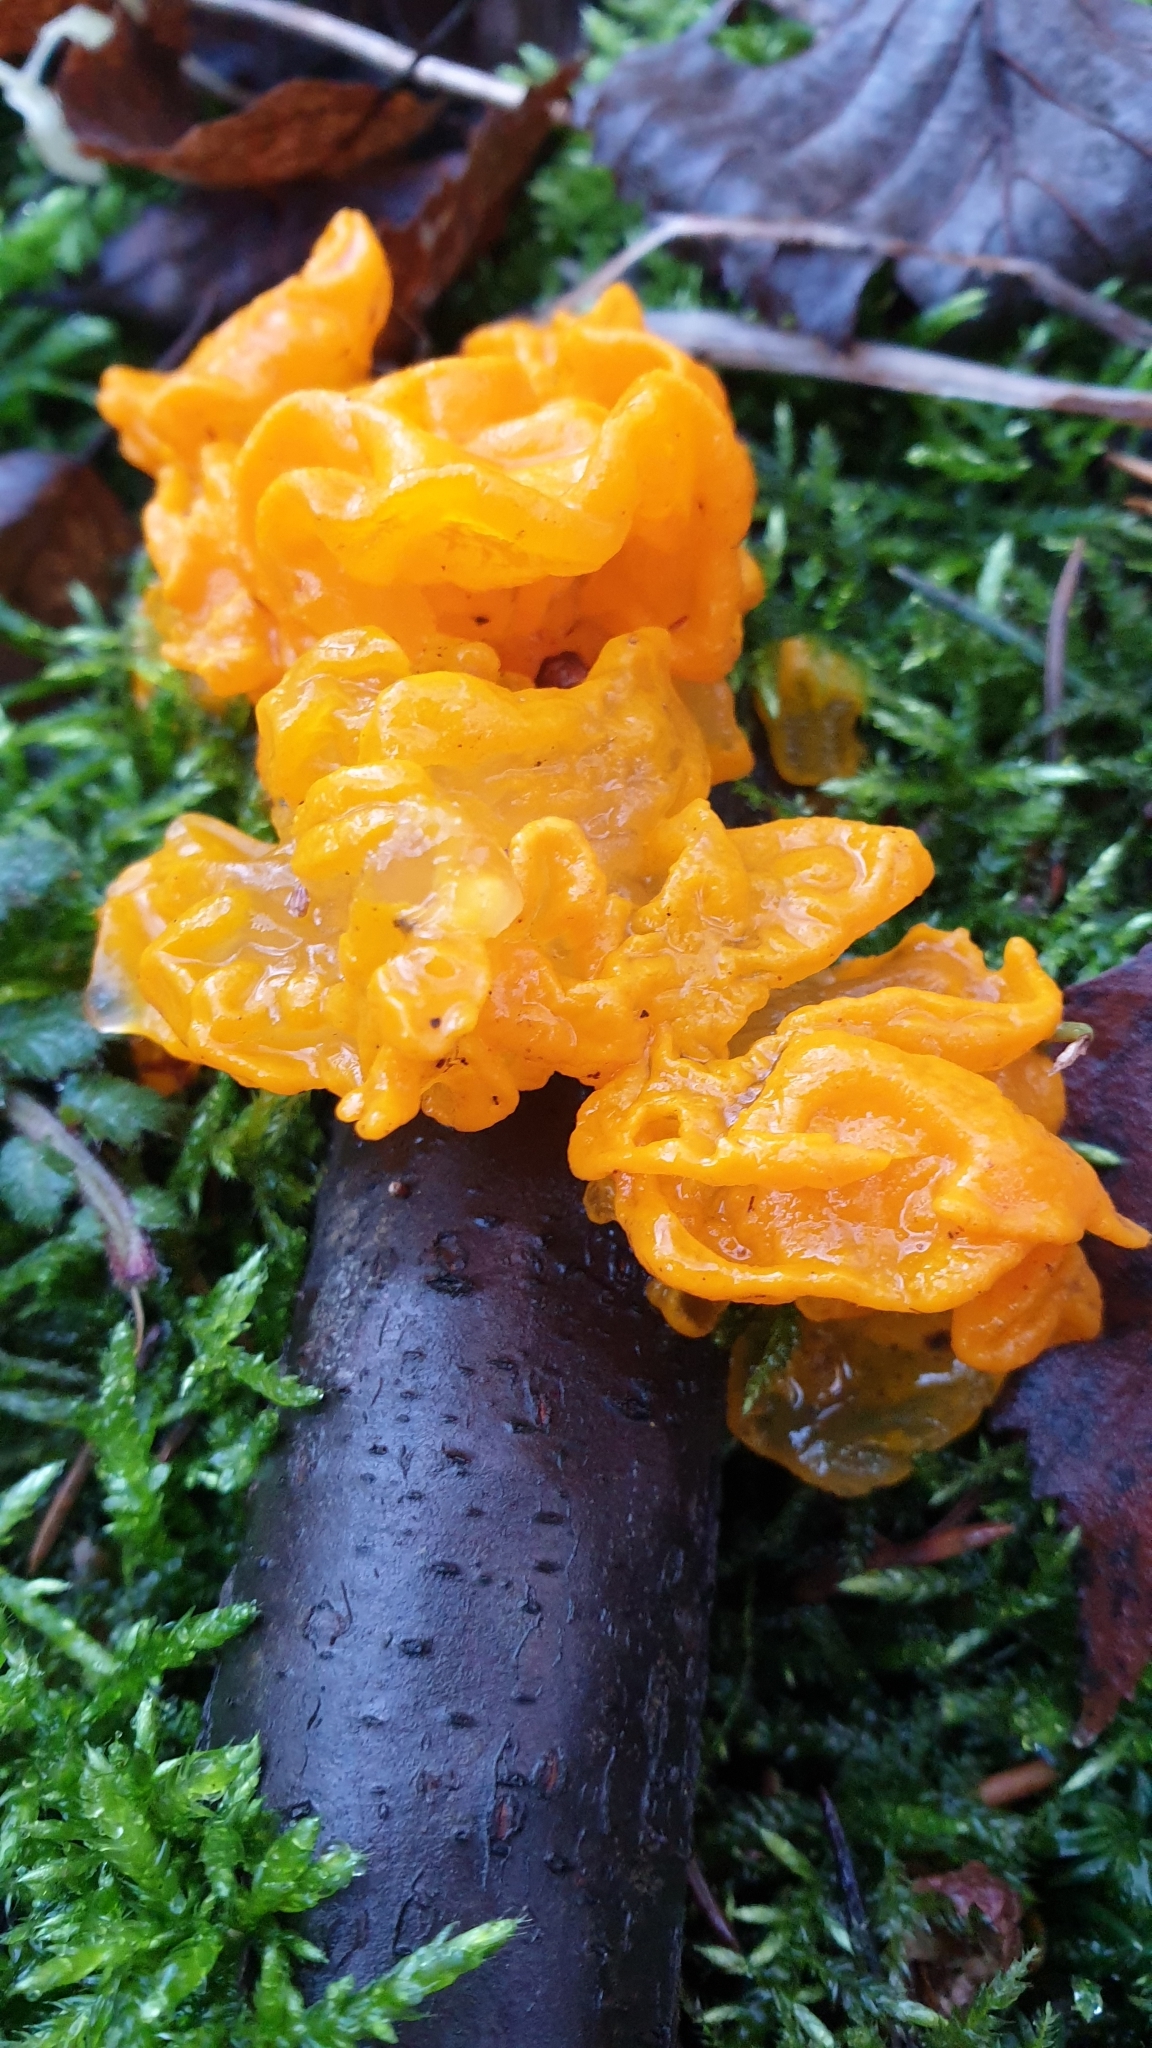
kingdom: Fungi
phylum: Basidiomycota
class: Tremellomycetes
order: Tremellales
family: Tremellaceae
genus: Tremella
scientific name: Tremella mesenterica
